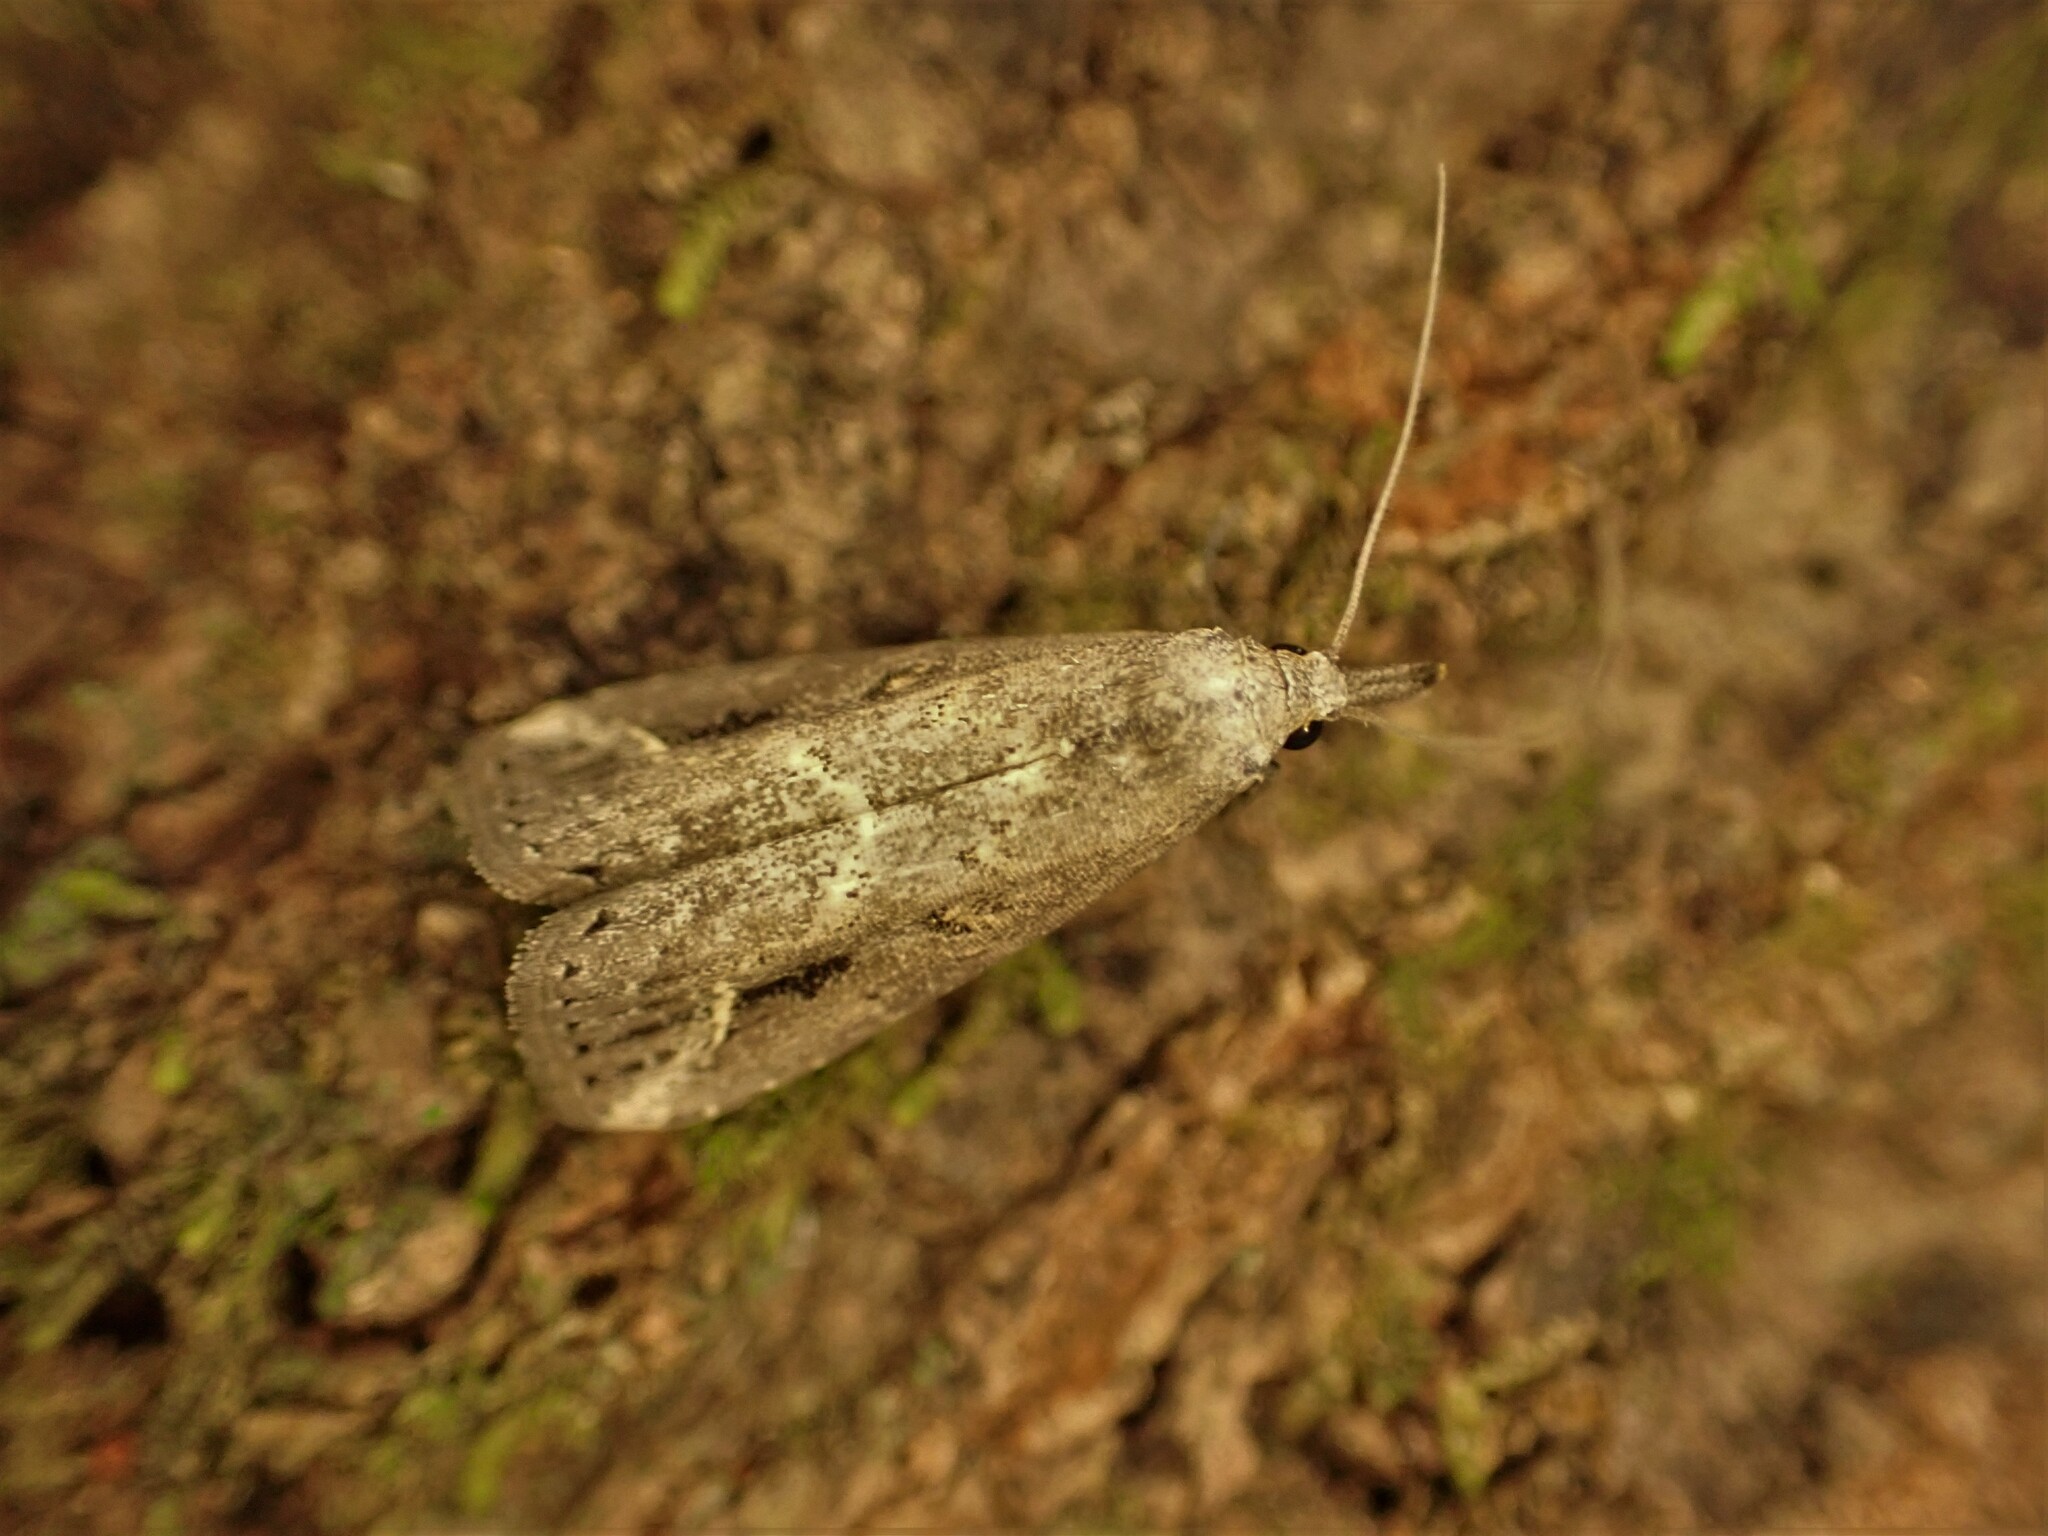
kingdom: Animalia
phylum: Arthropoda
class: Insecta
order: Lepidoptera
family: Erebidae
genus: Schrankia
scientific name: Schrankia costaestrigalis
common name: Pinion-streaked snout
